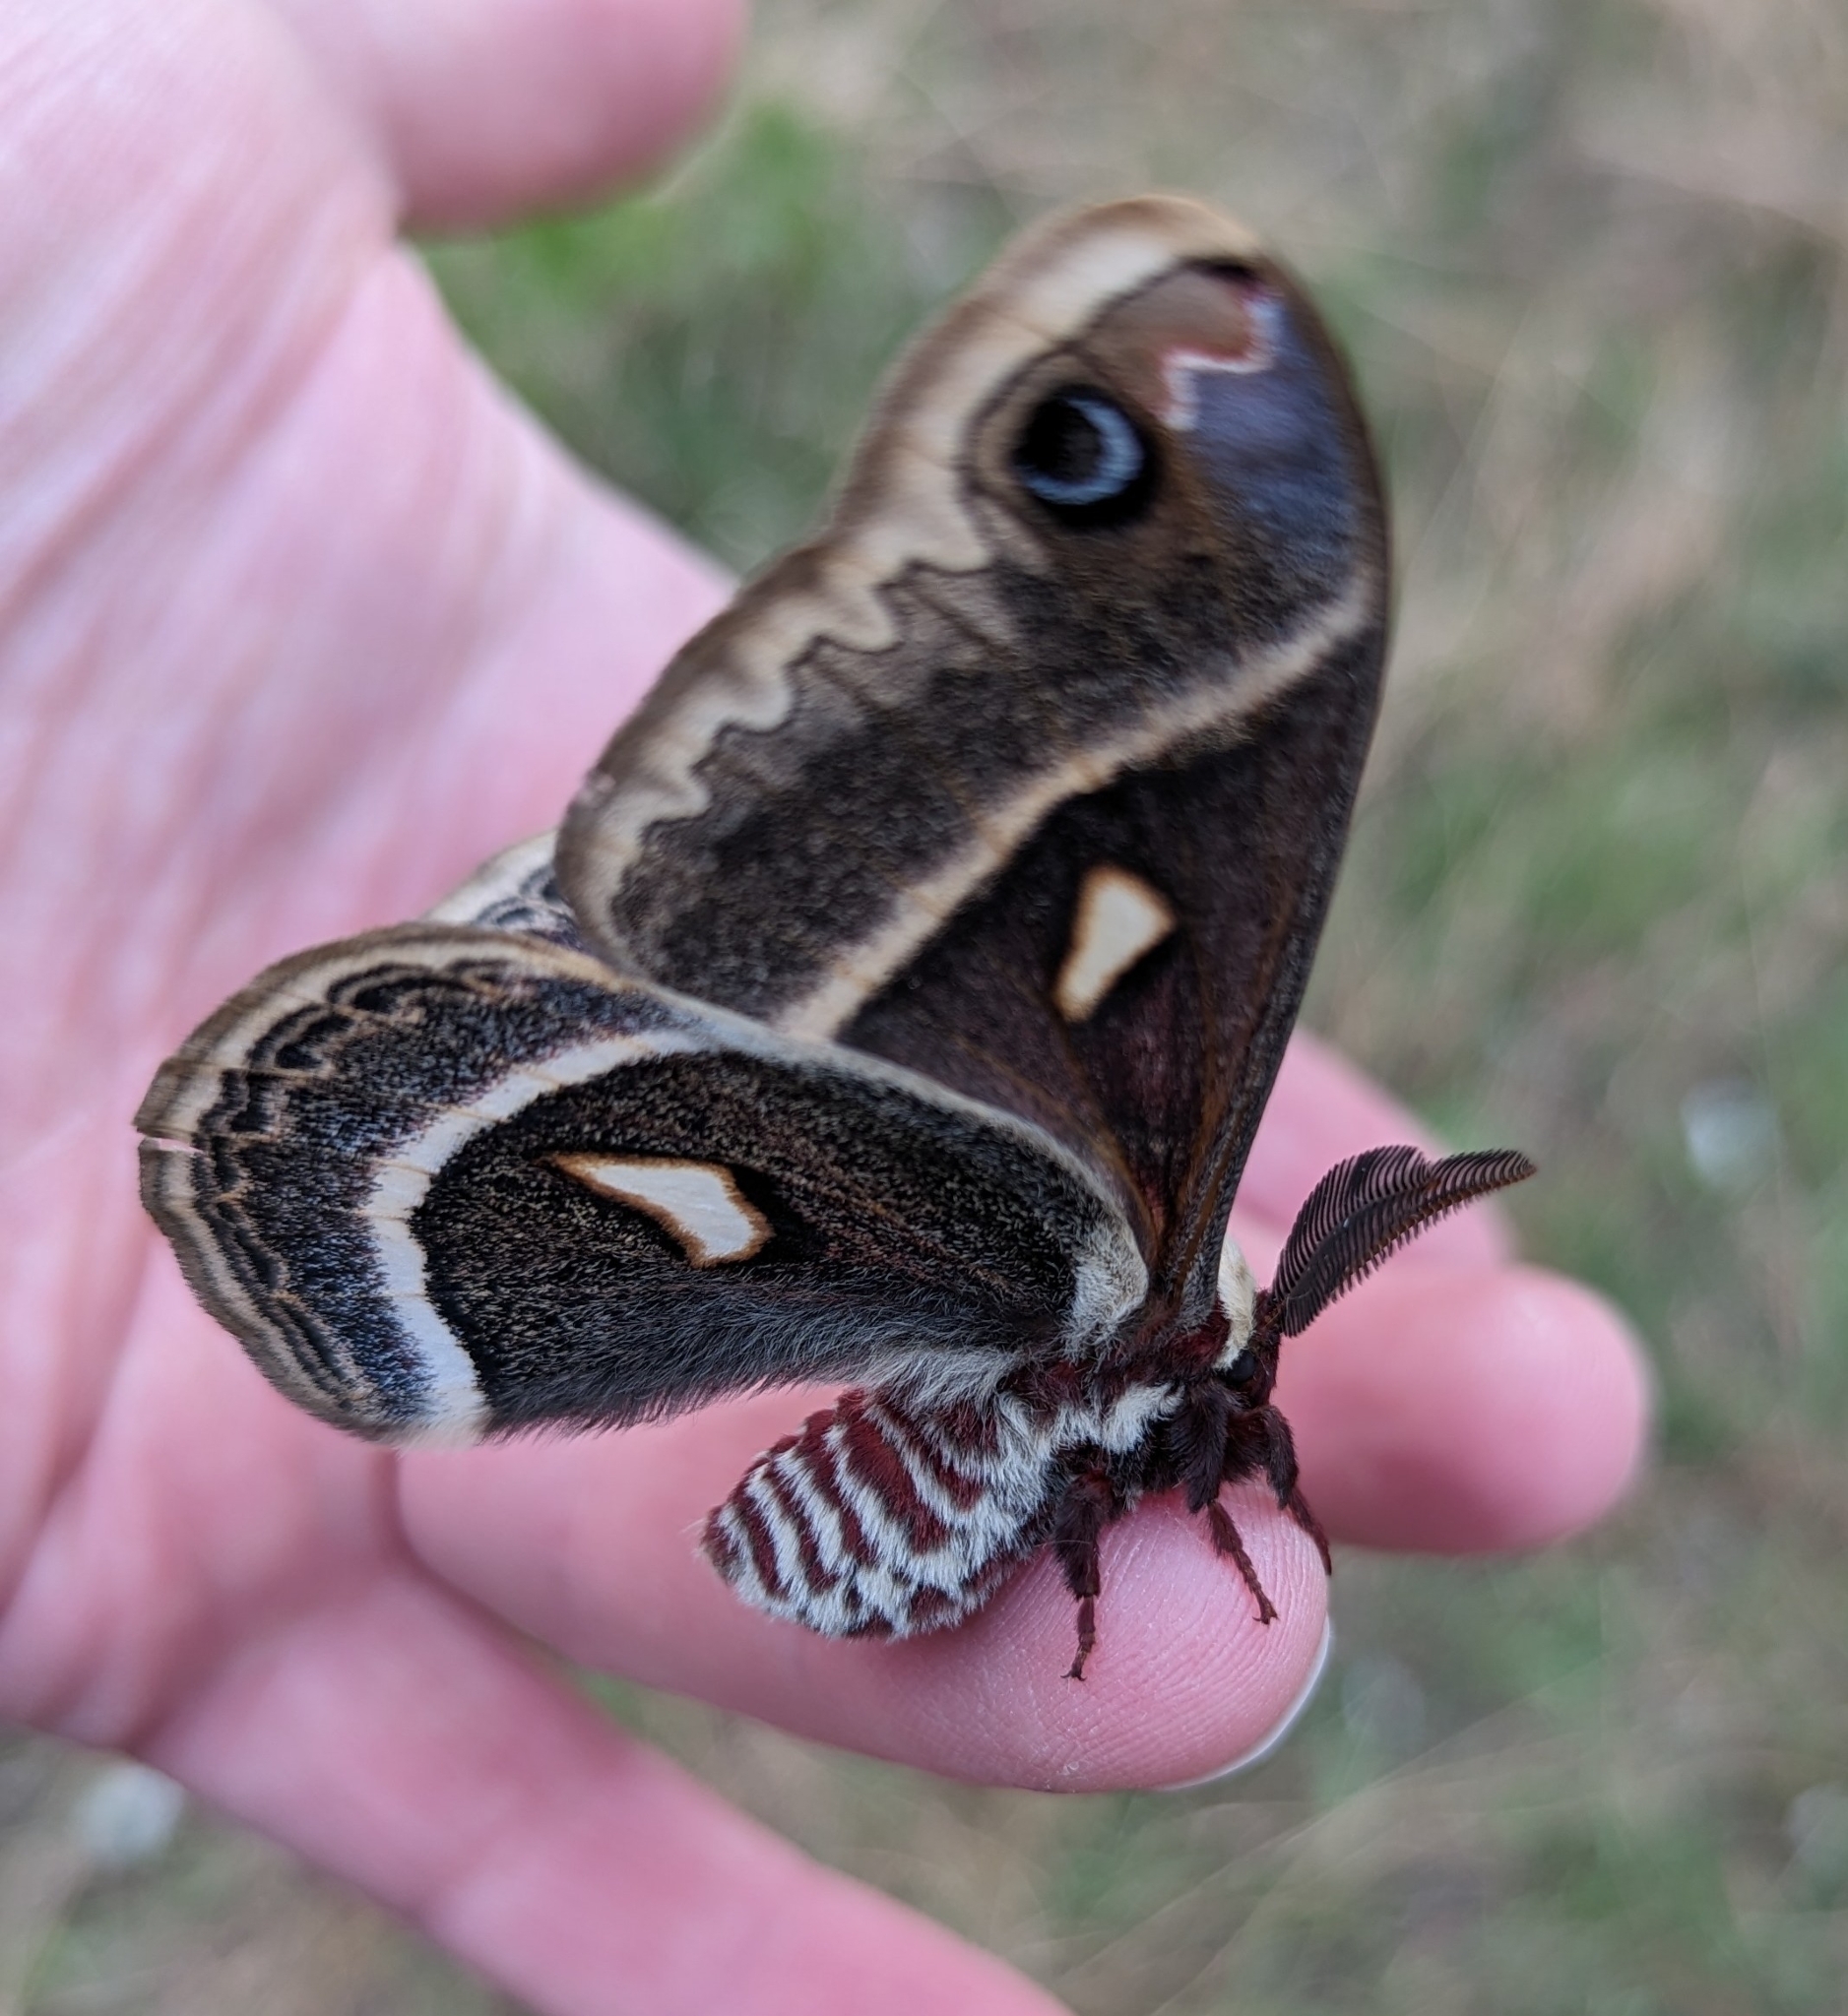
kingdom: Animalia
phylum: Arthropoda
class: Insecta
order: Lepidoptera
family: Saturniidae
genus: Hyalophora
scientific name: Hyalophora gloveri
